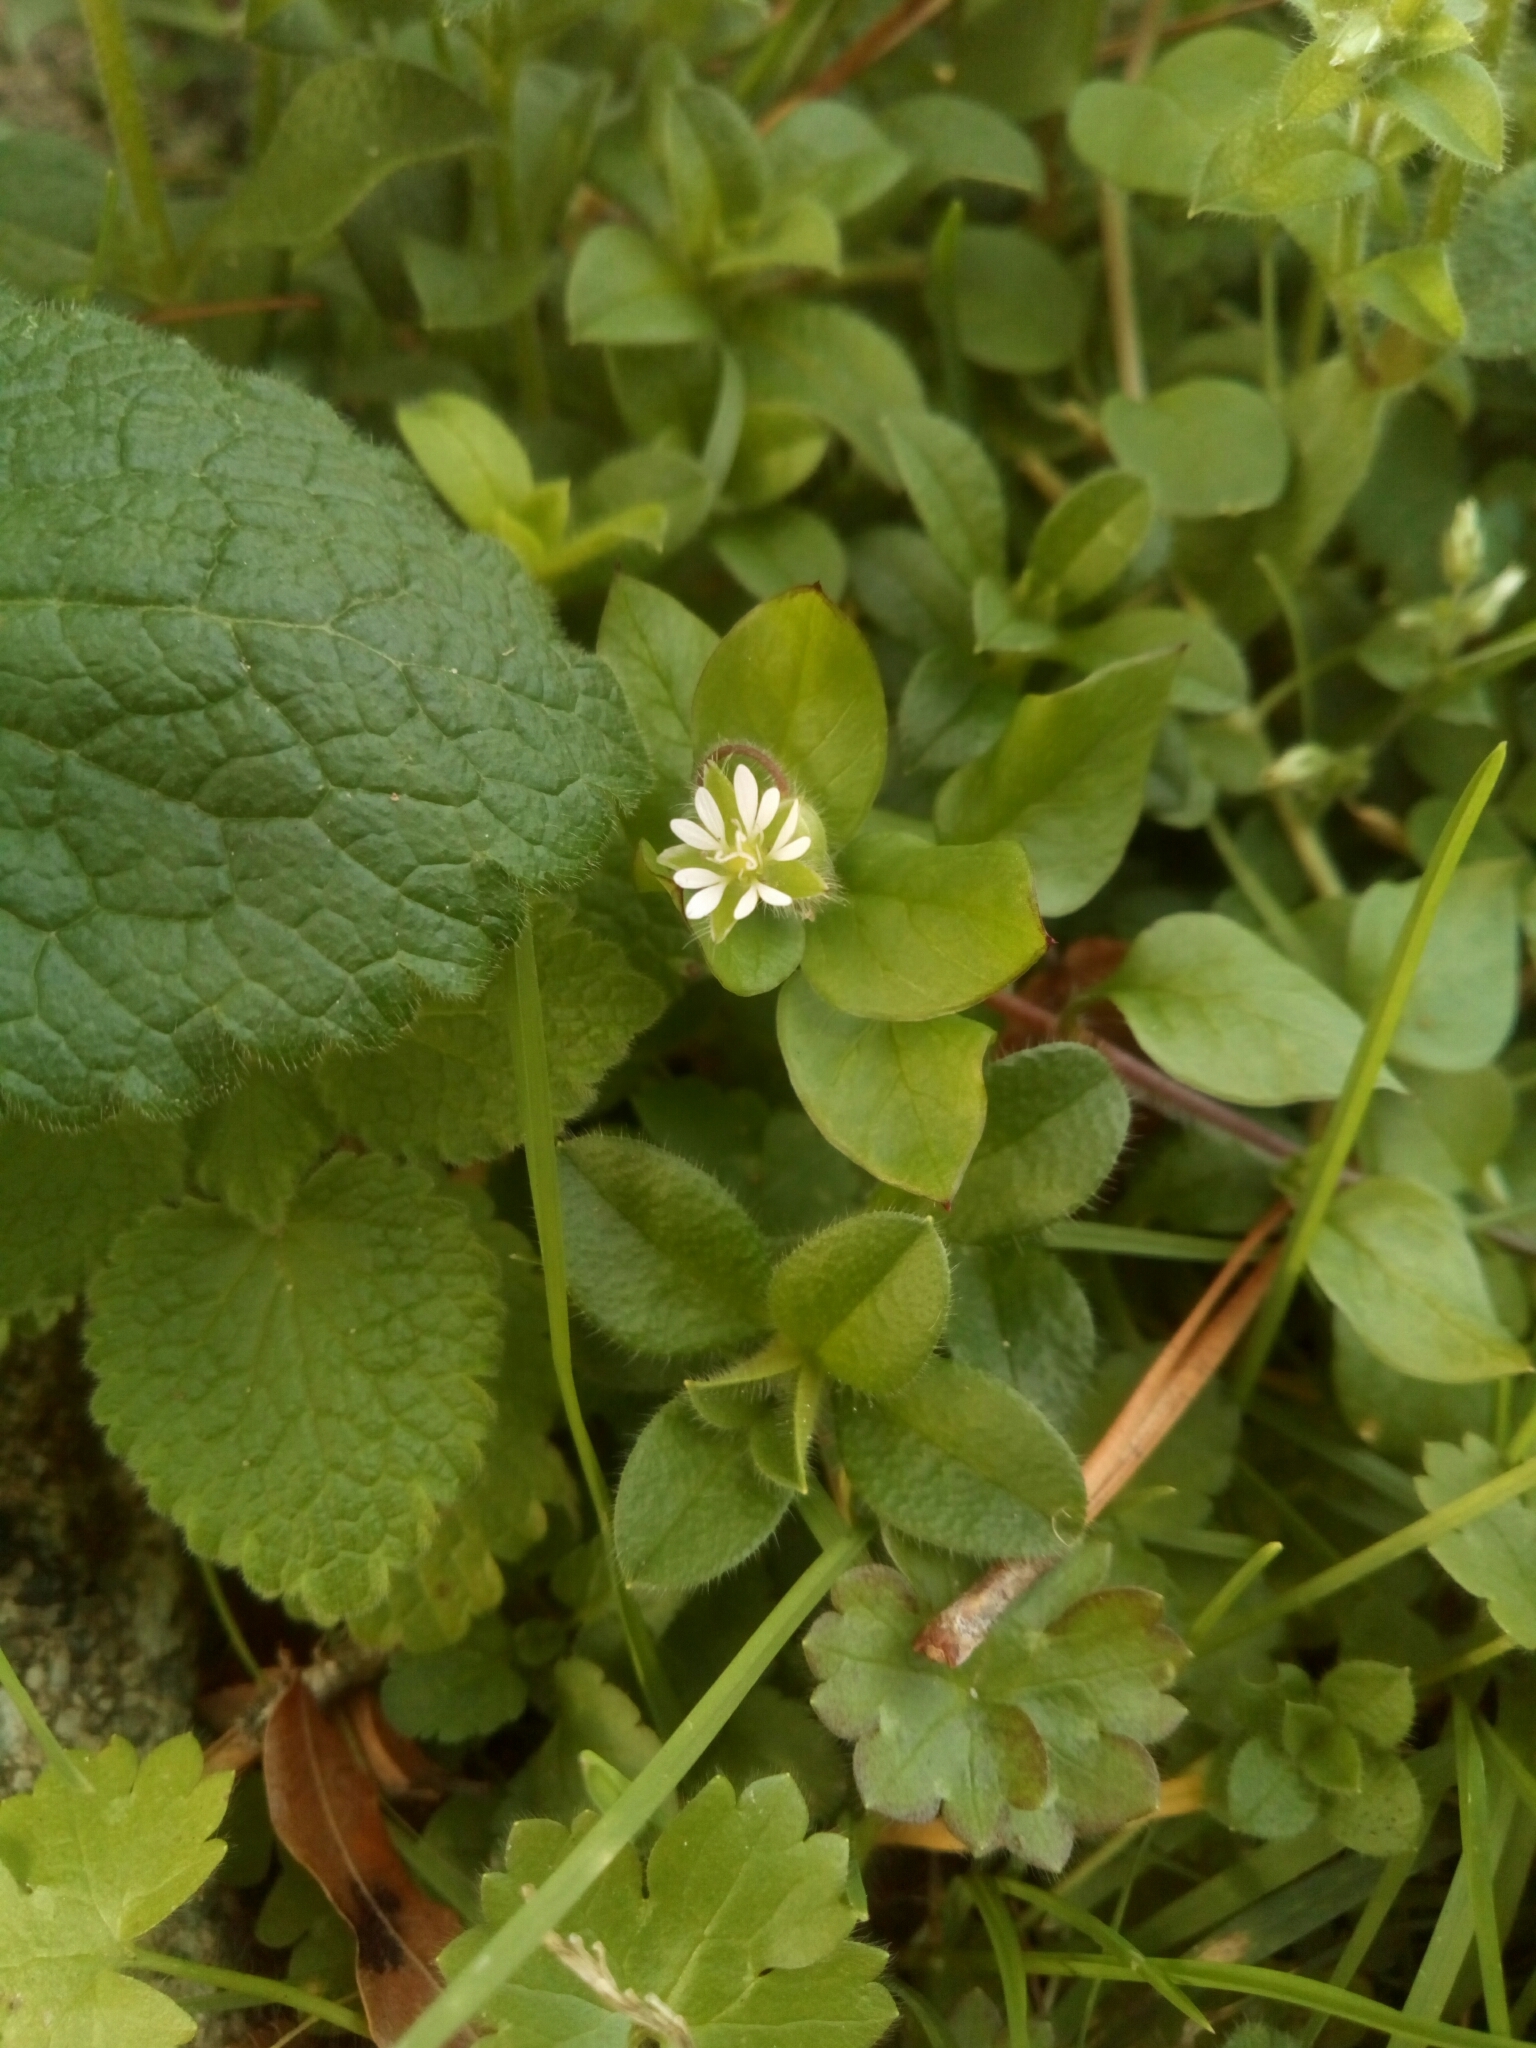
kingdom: Plantae
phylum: Tracheophyta
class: Magnoliopsida
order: Caryophyllales
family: Caryophyllaceae
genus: Stellaria
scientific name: Stellaria media
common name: Common chickweed
